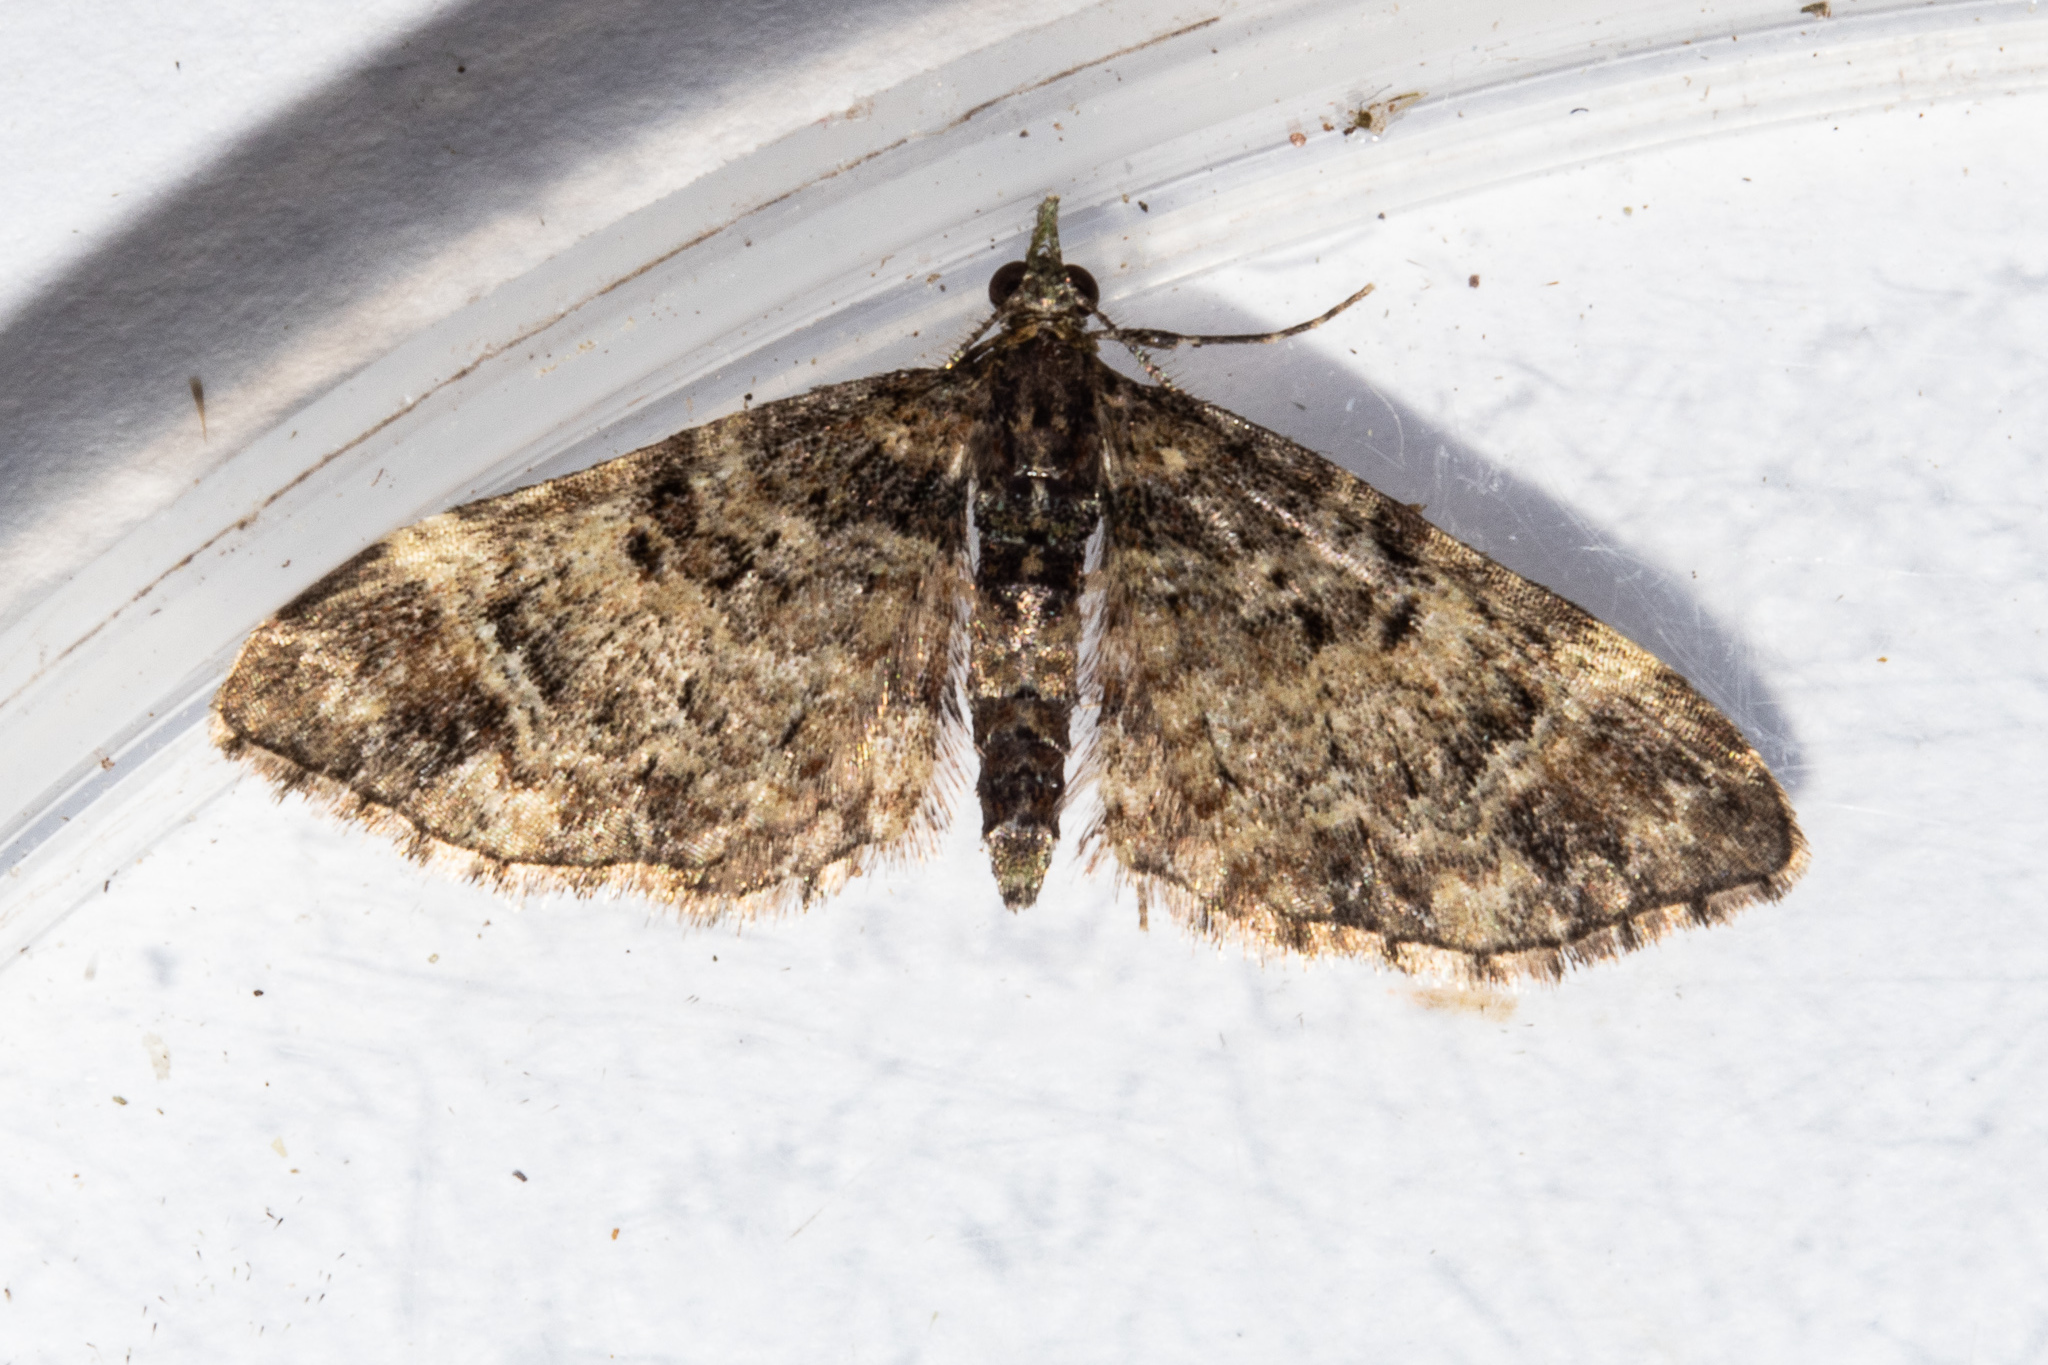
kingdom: Animalia
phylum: Arthropoda
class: Insecta
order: Lepidoptera
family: Geometridae
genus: Idaea
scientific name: Idaea mutanda
